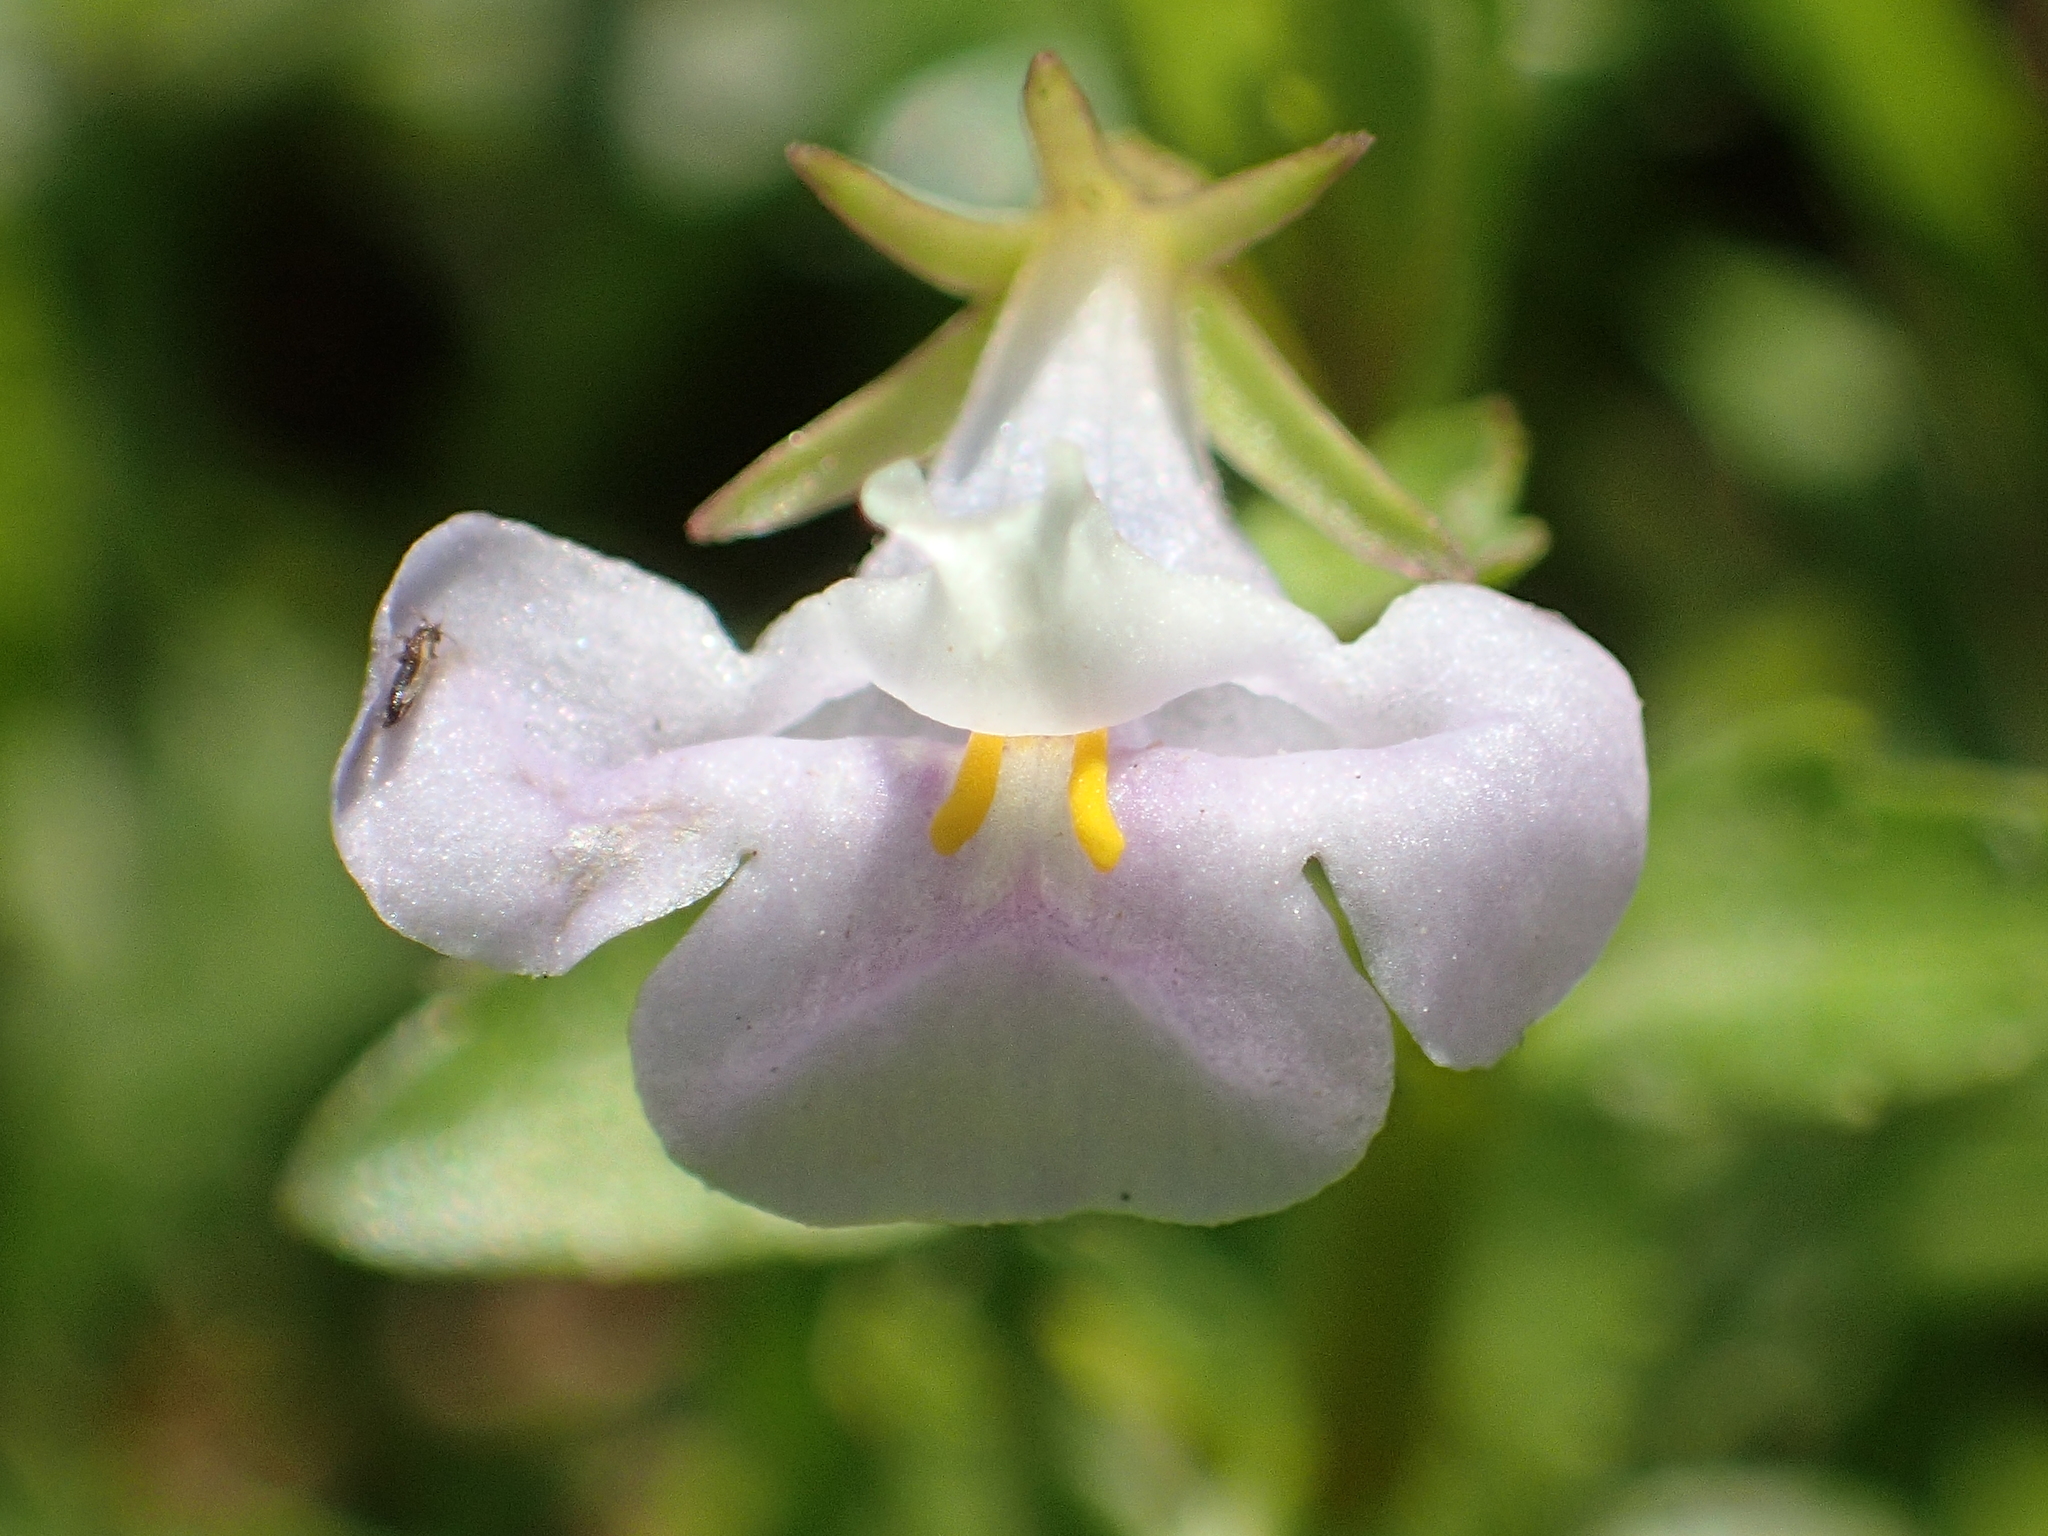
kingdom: Plantae
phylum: Tracheophyta
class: Magnoliopsida
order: Lamiales
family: Linderniaceae
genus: Bonnaya
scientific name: Bonnaya antipoda
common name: Sparrow false pimpernel
